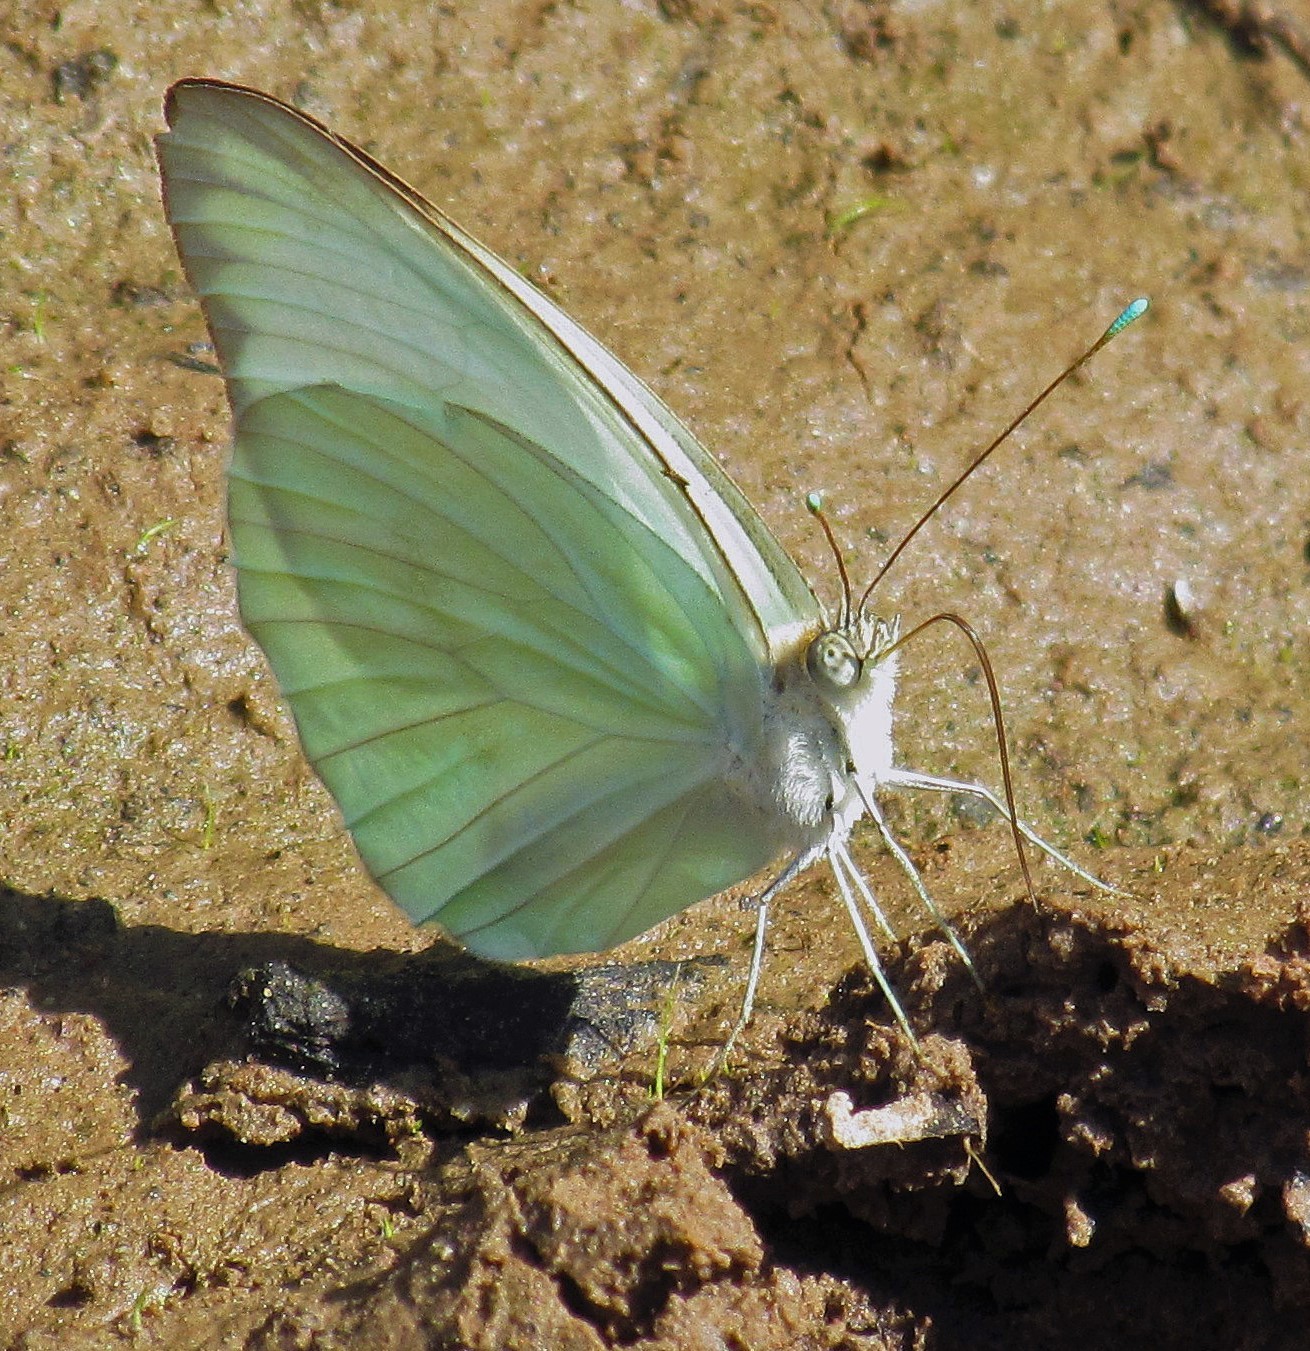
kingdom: Animalia
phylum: Arthropoda
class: Insecta
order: Lepidoptera
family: Pieridae
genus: Ascia
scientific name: Ascia monuste
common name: Great southern white
